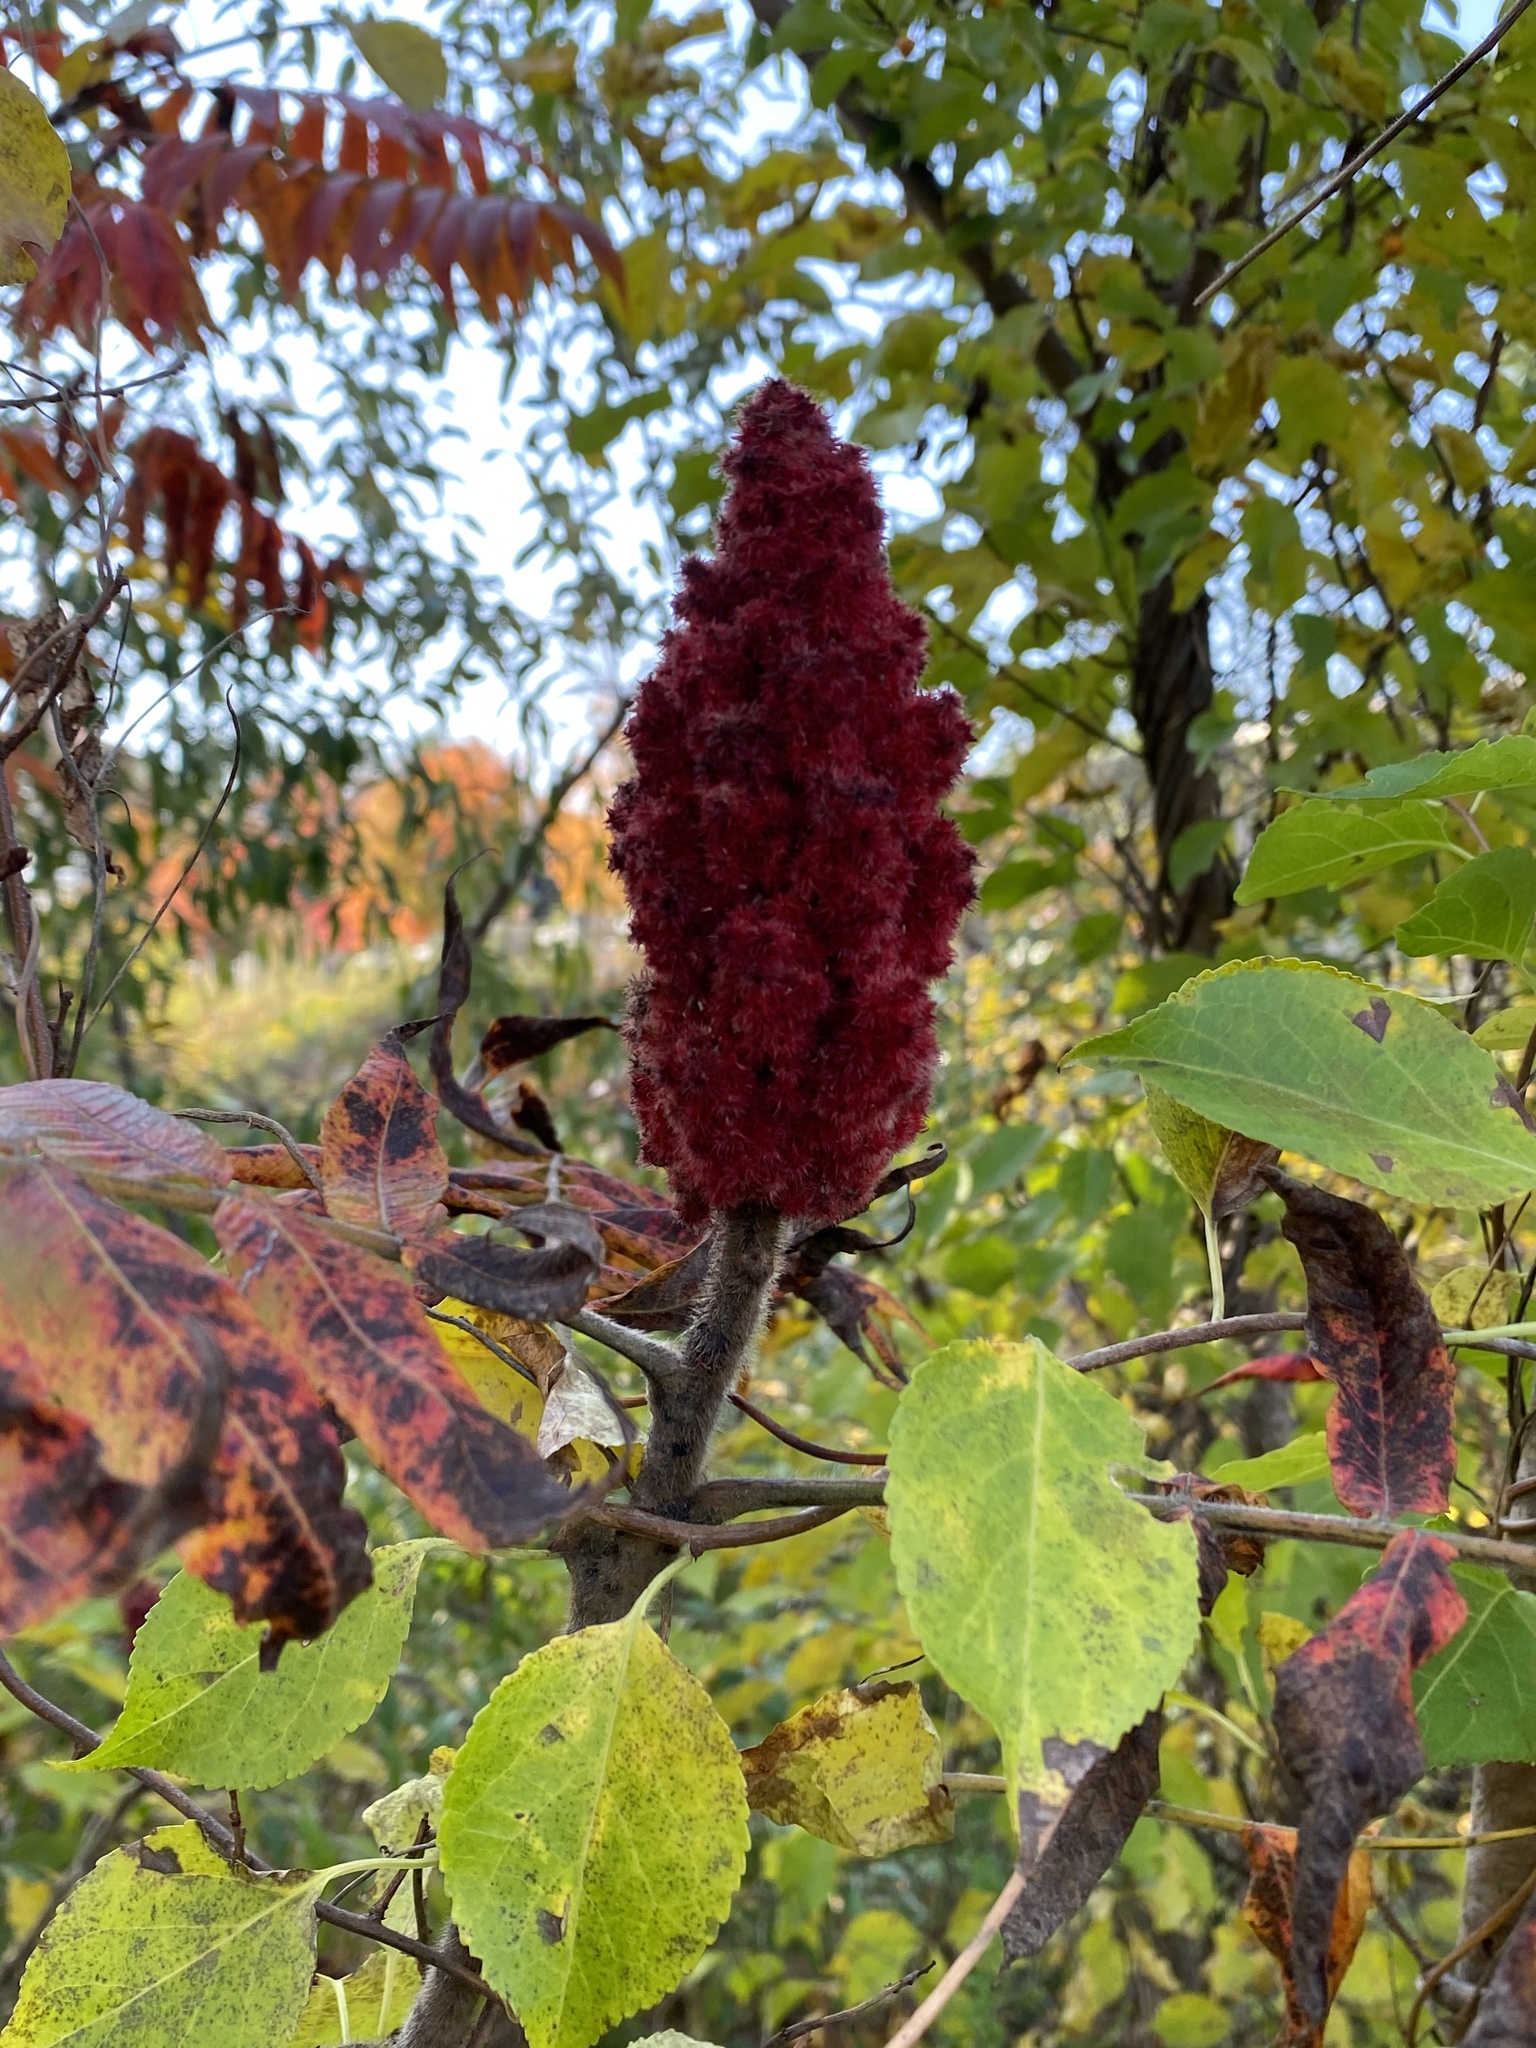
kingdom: Plantae
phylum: Tracheophyta
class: Magnoliopsida
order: Sapindales
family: Anacardiaceae
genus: Rhus
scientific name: Rhus typhina
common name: Staghorn sumac
